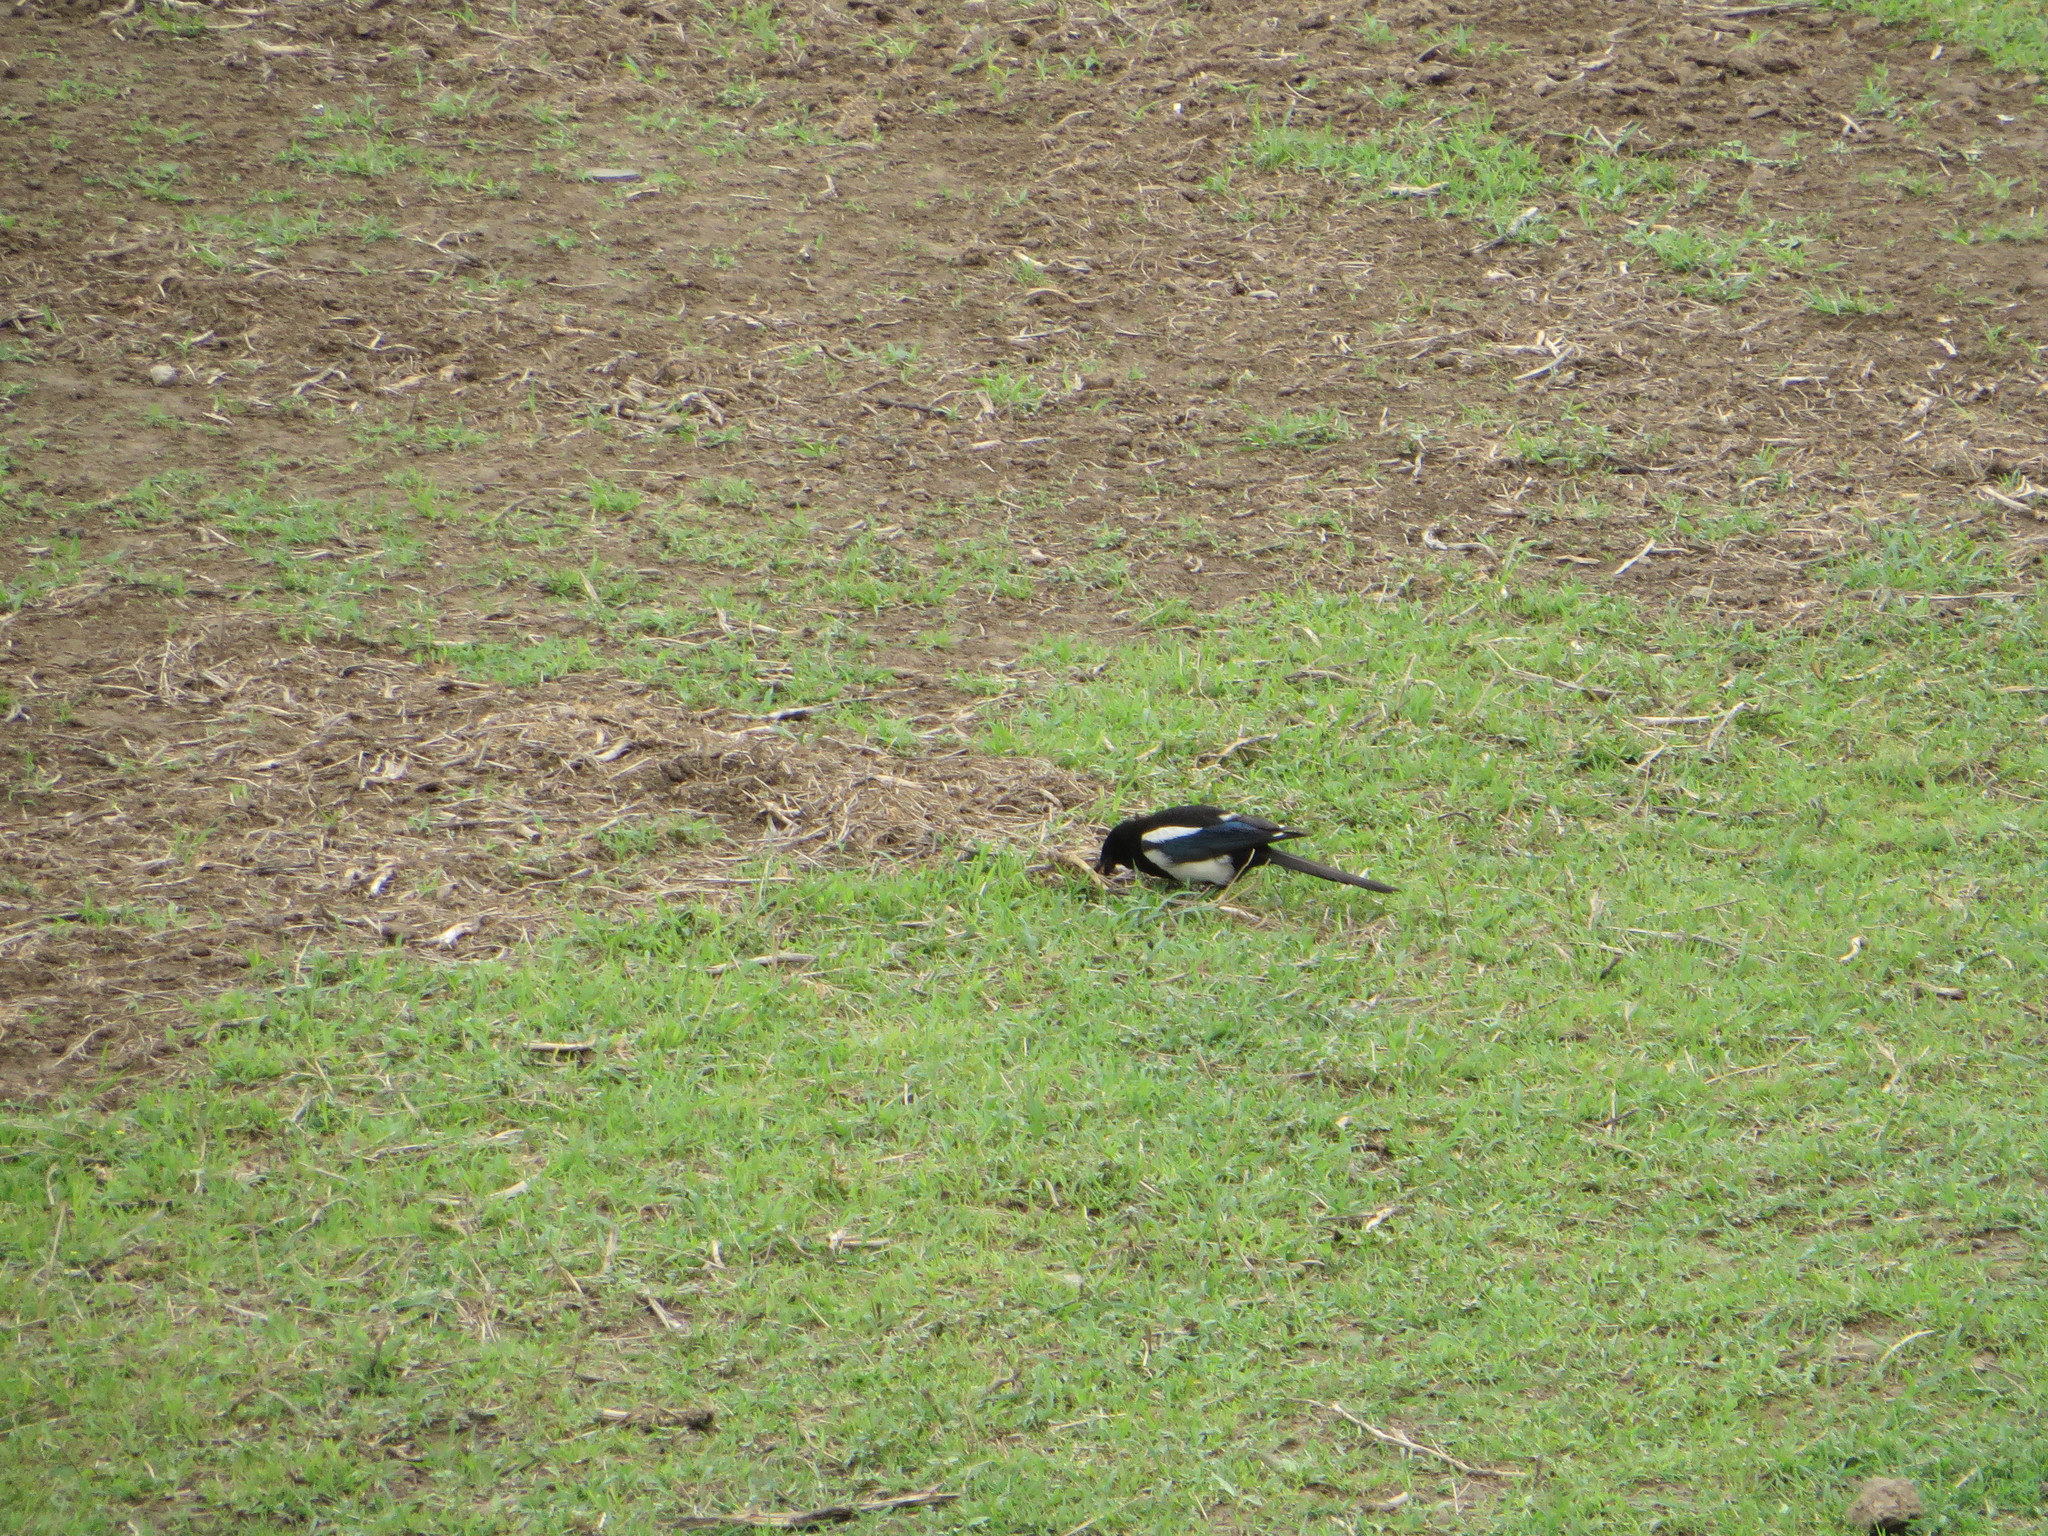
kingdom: Animalia
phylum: Chordata
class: Aves
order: Passeriformes
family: Corvidae
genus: Pica
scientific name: Pica serica
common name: Oriental magpie
